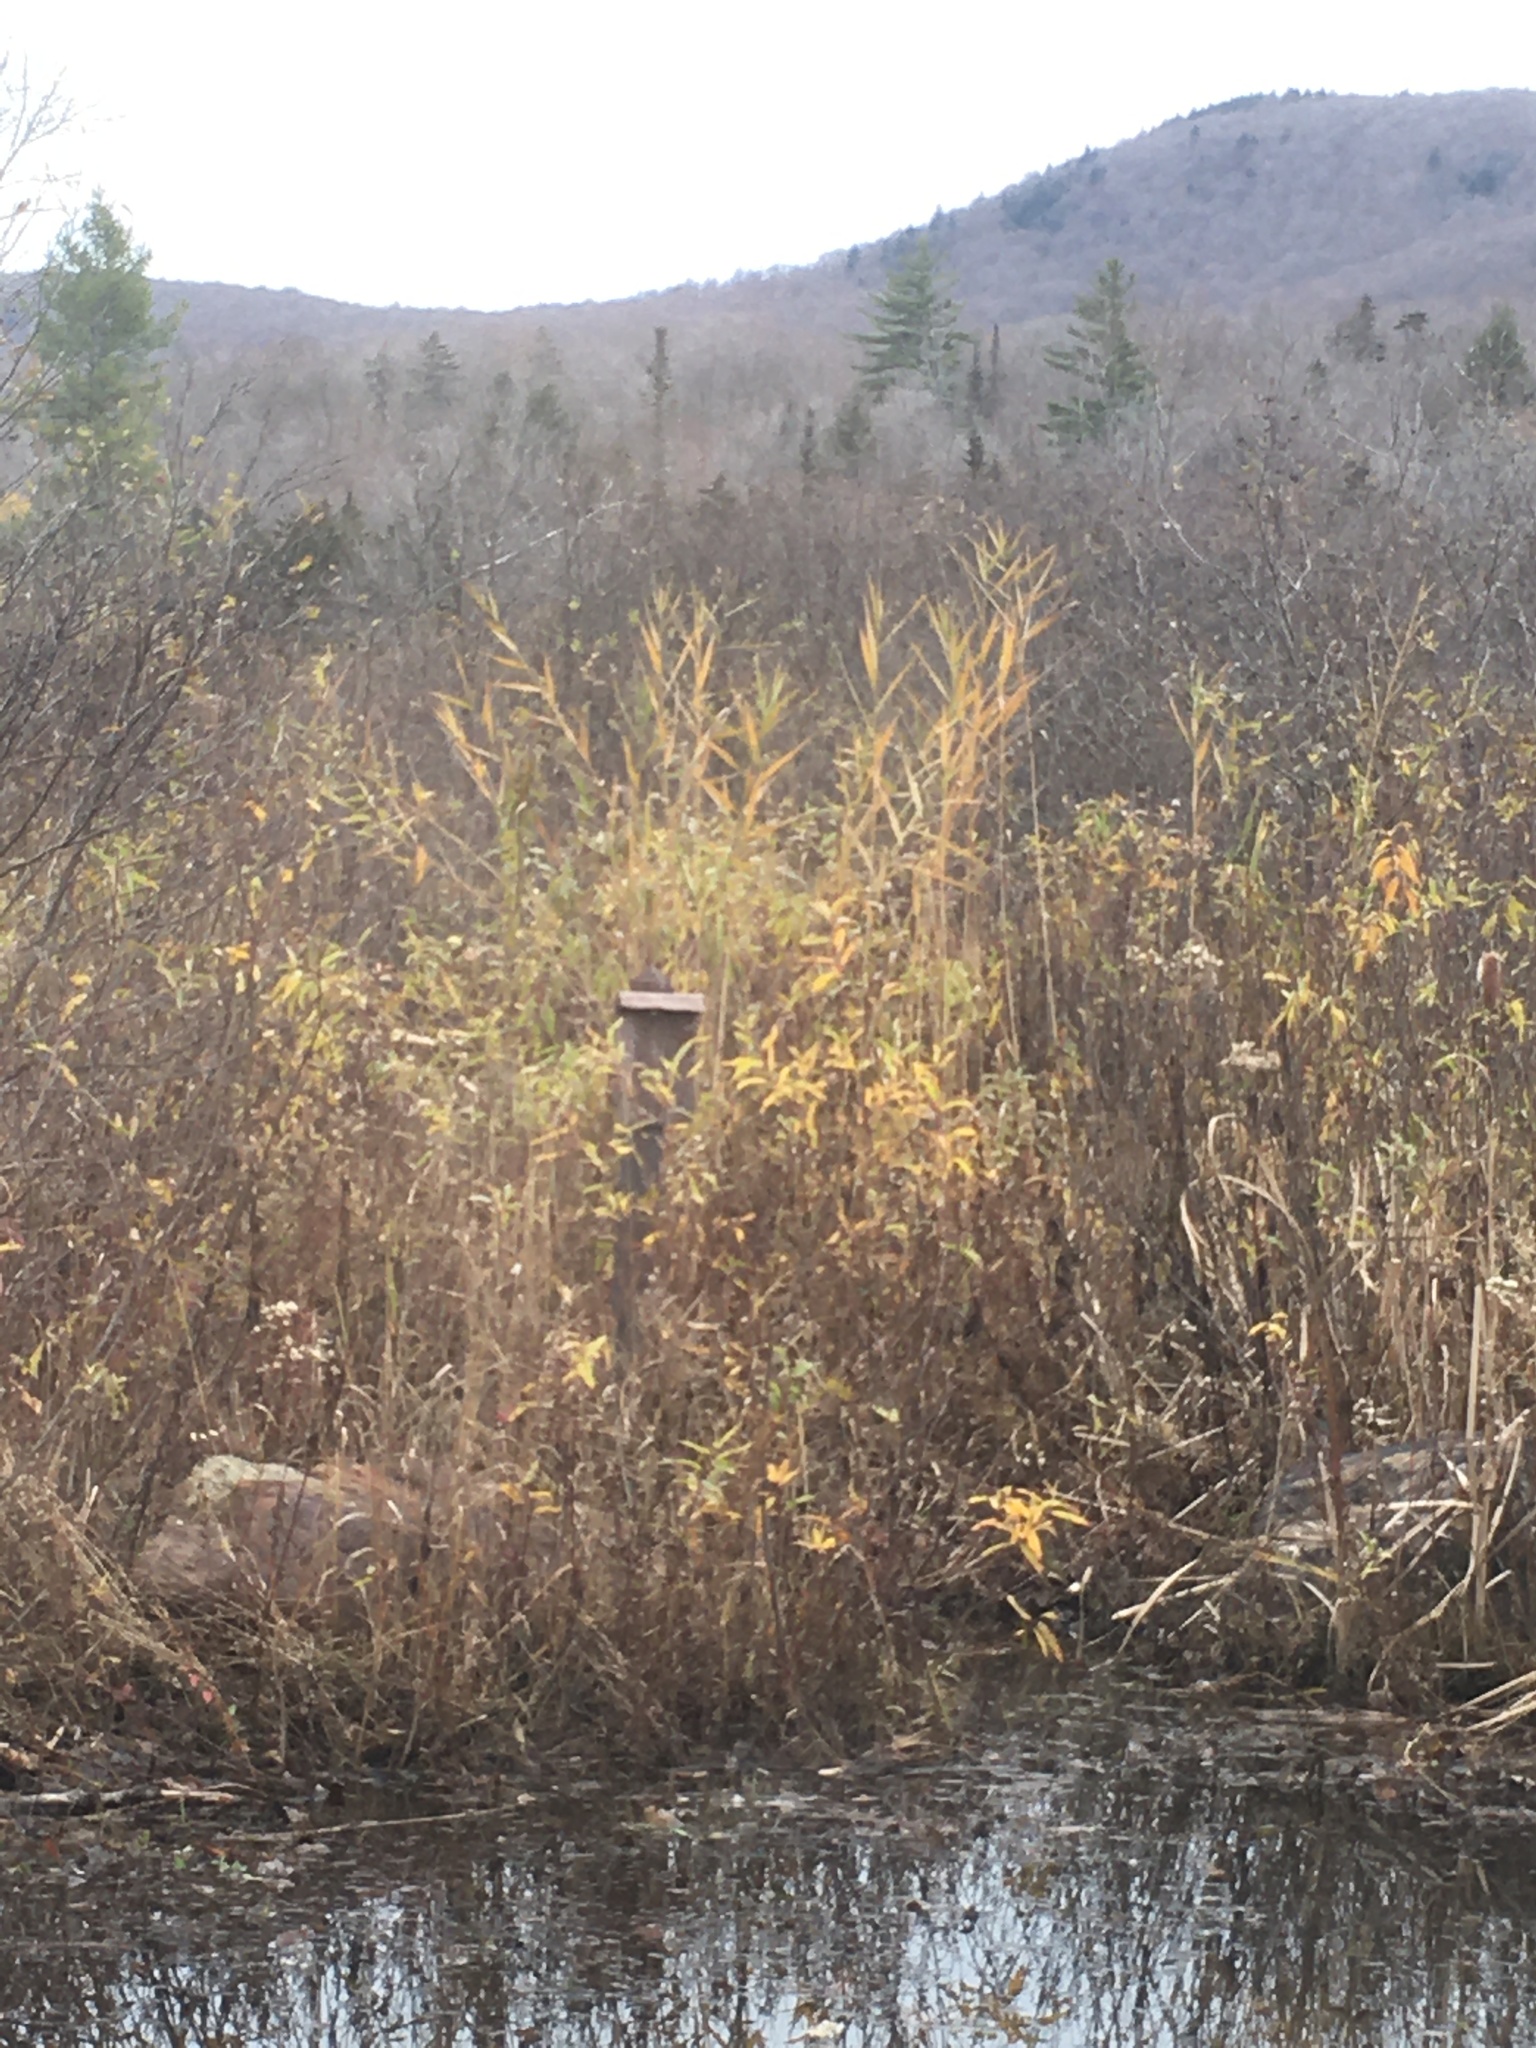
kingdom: Plantae
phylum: Tracheophyta
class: Liliopsida
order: Poales
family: Poaceae
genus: Phragmites
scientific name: Phragmites australis
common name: Common reed
